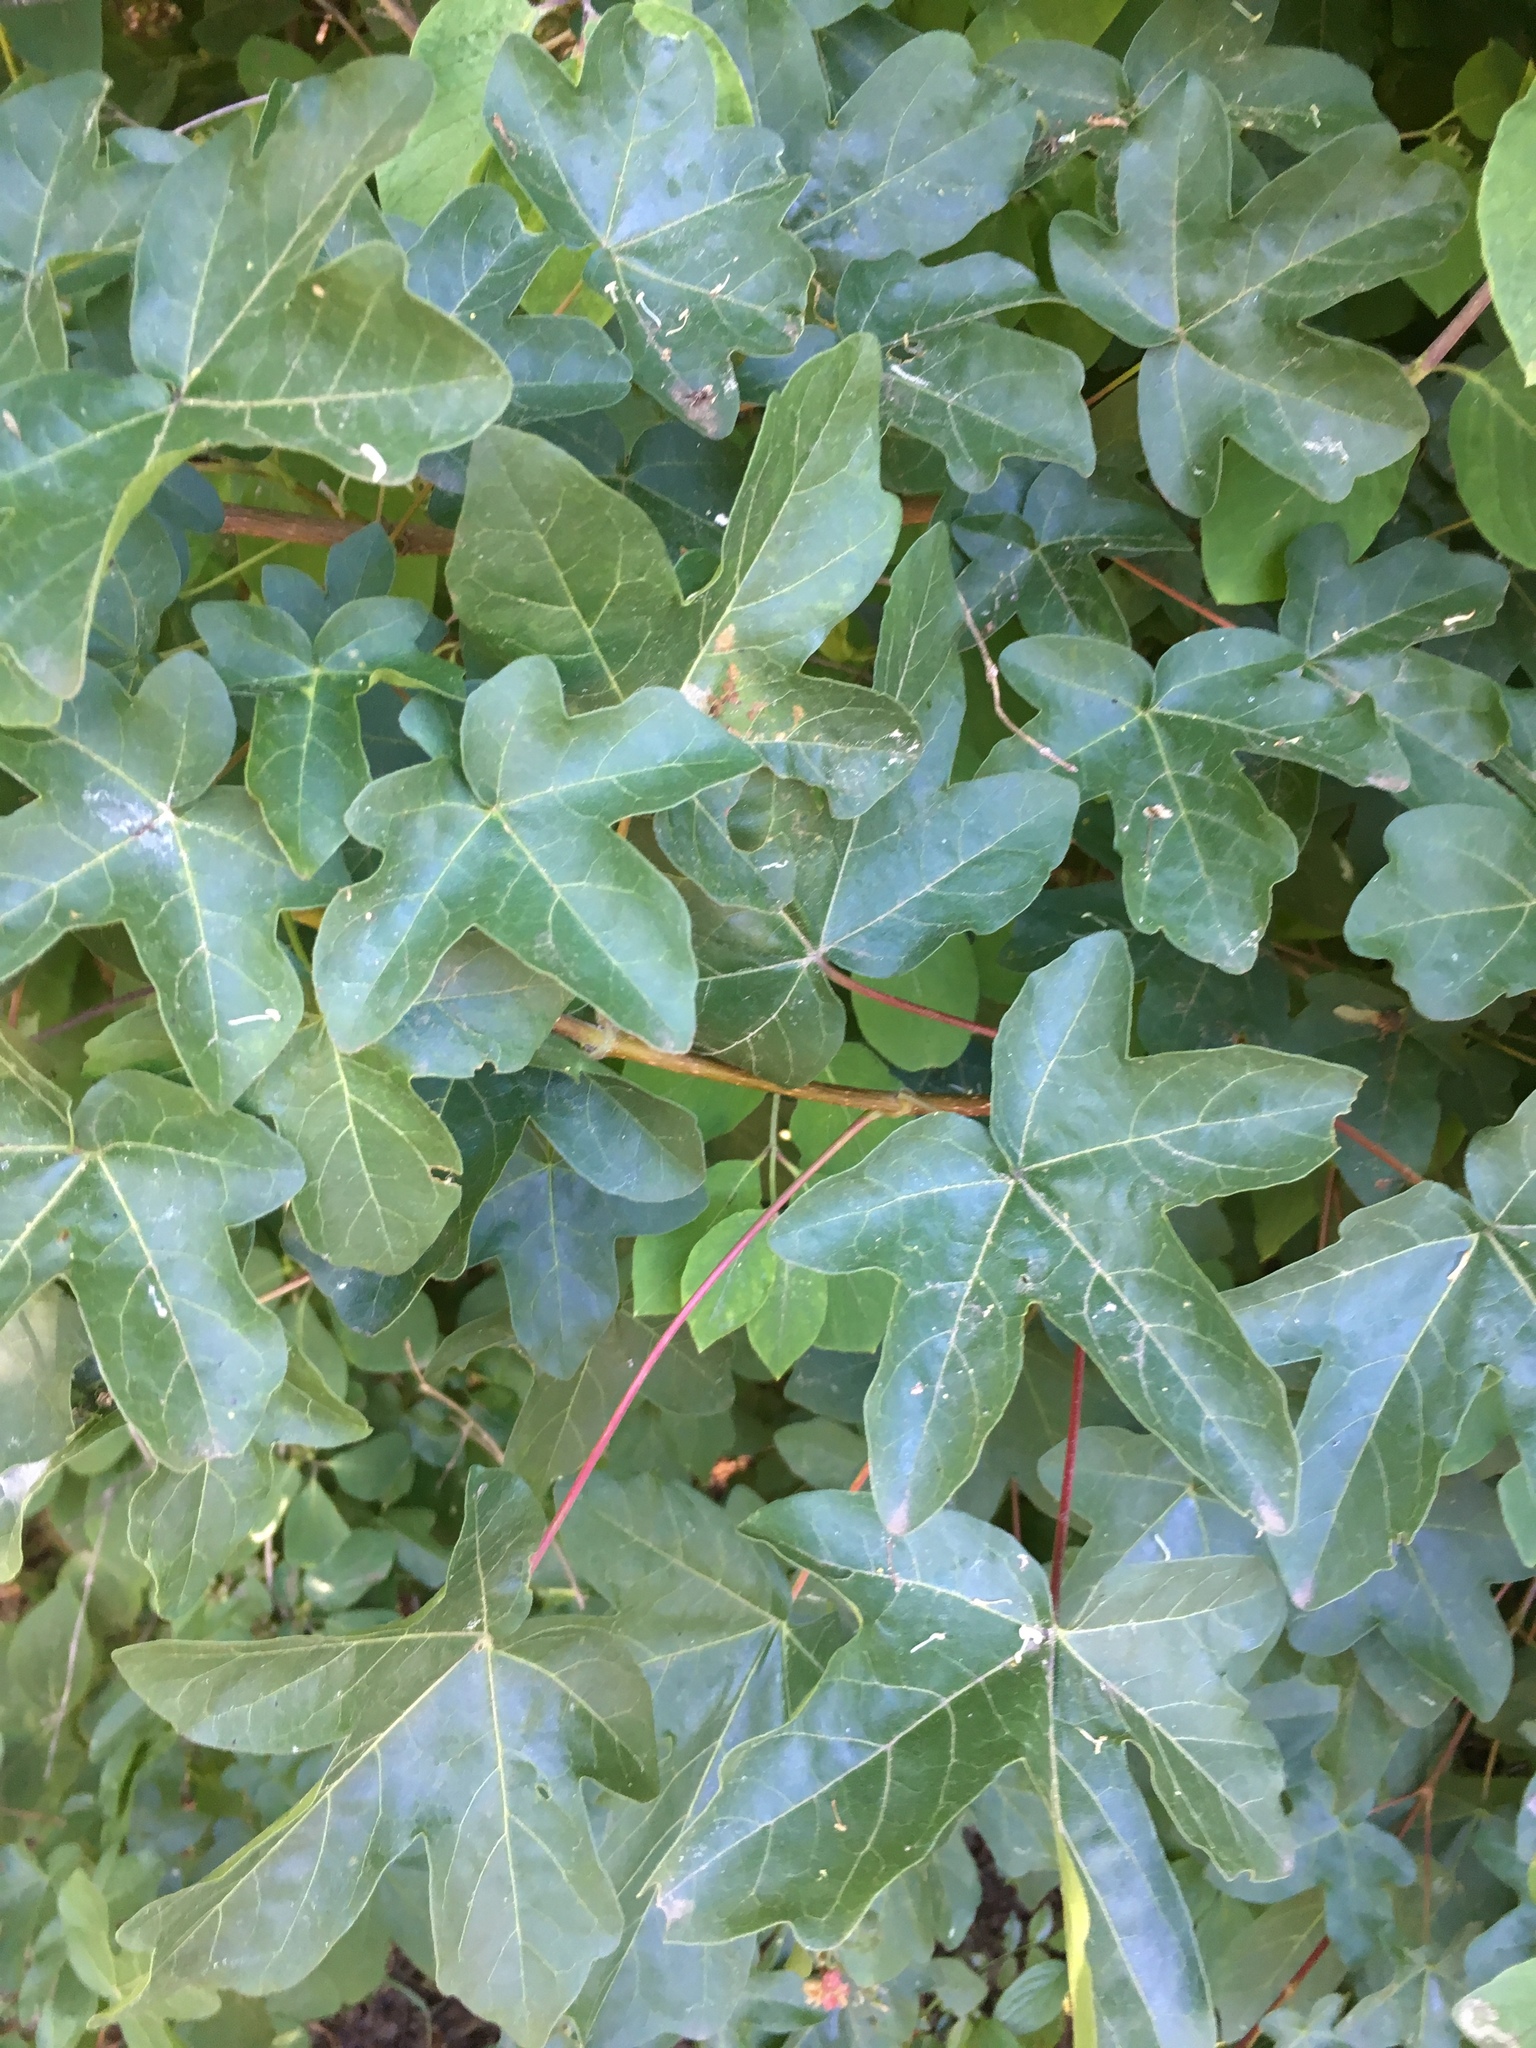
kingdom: Plantae
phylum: Tracheophyta
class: Magnoliopsida
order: Sapindales
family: Sapindaceae
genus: Acer
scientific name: Acer campestre
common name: Field maple
